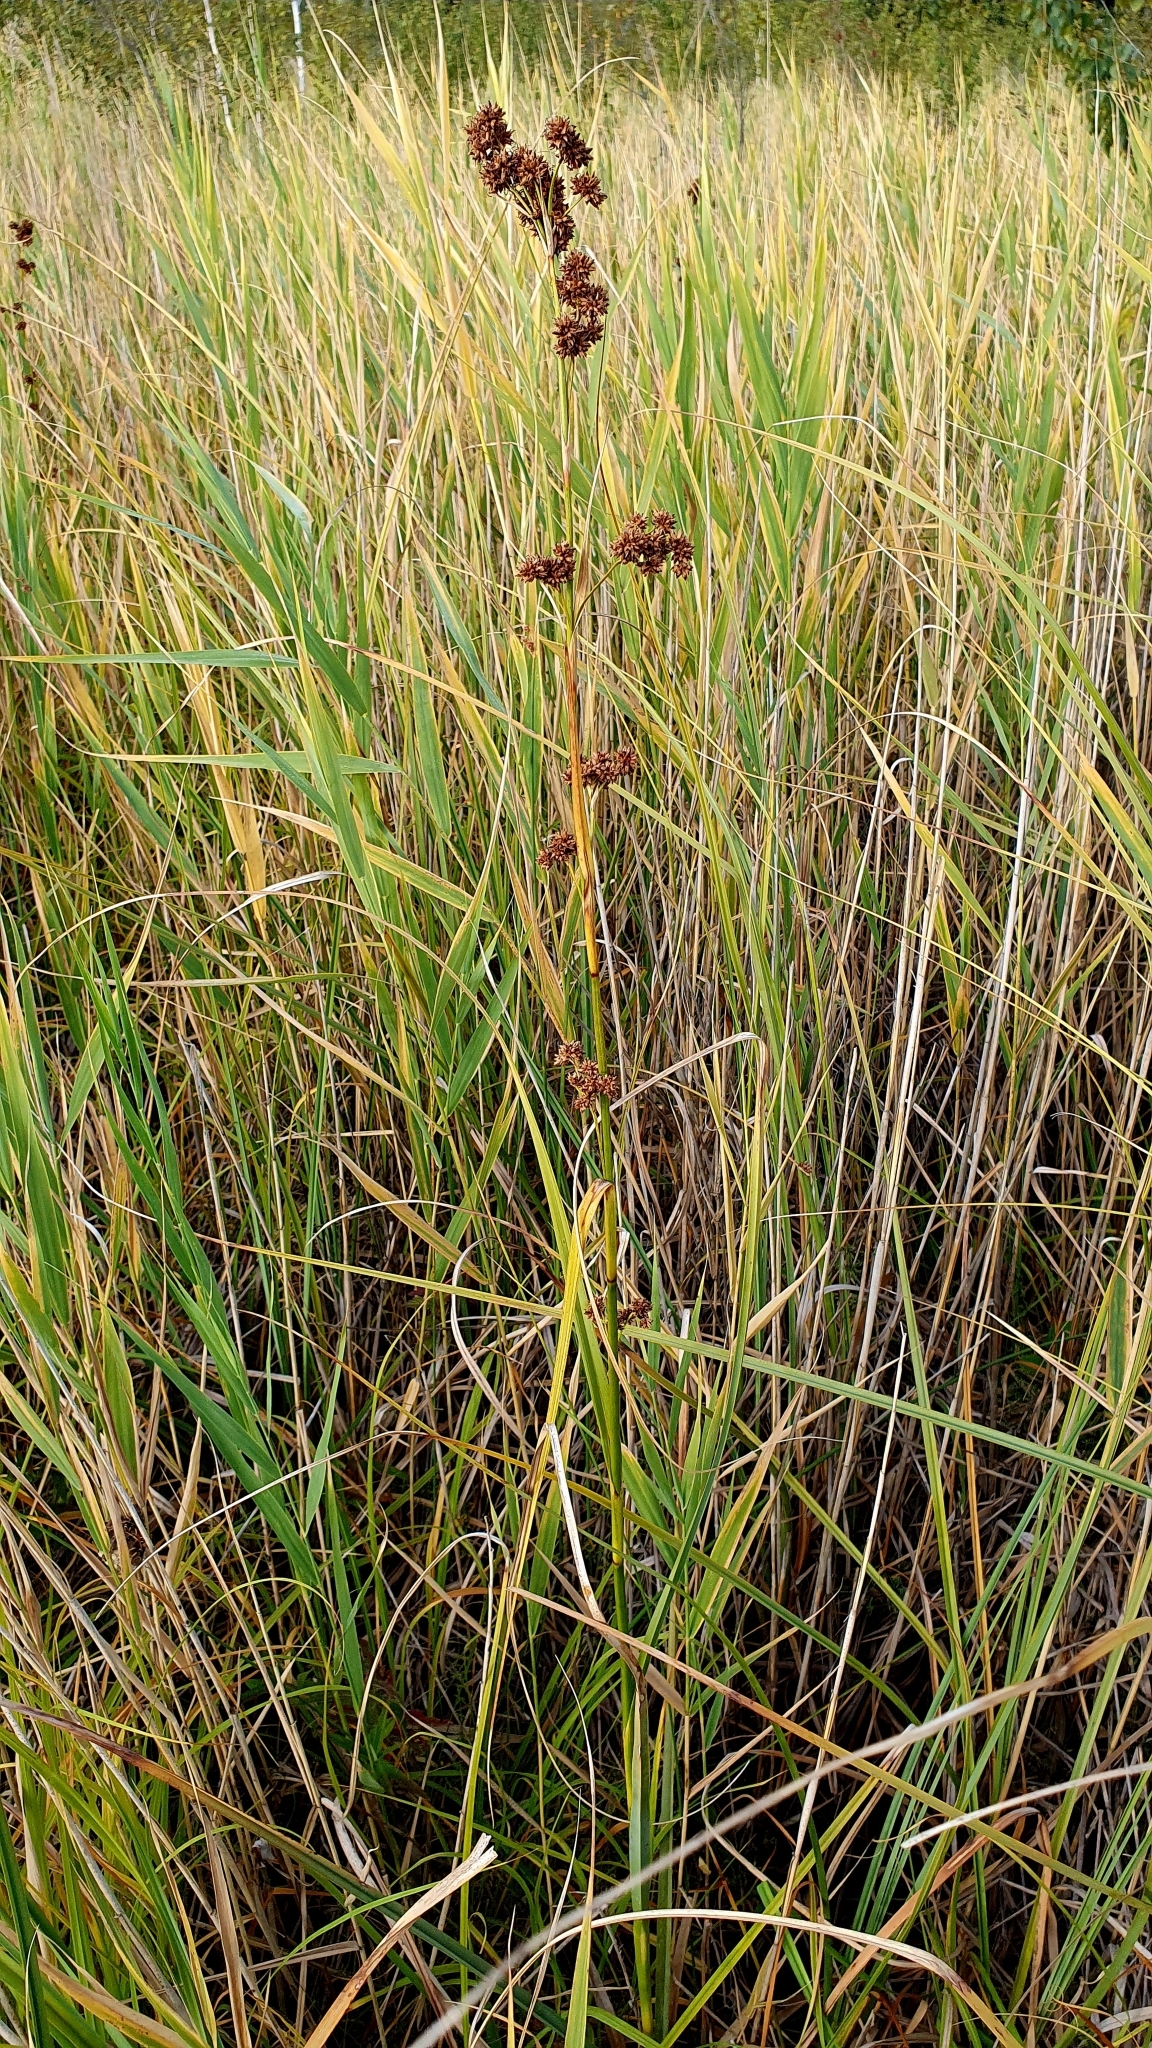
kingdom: Plantae
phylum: Tracheophyta
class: Liliopsida
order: Poales
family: Cyperaceae
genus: Cladium
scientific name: Cladium mariscus
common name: Great fen-sedge
